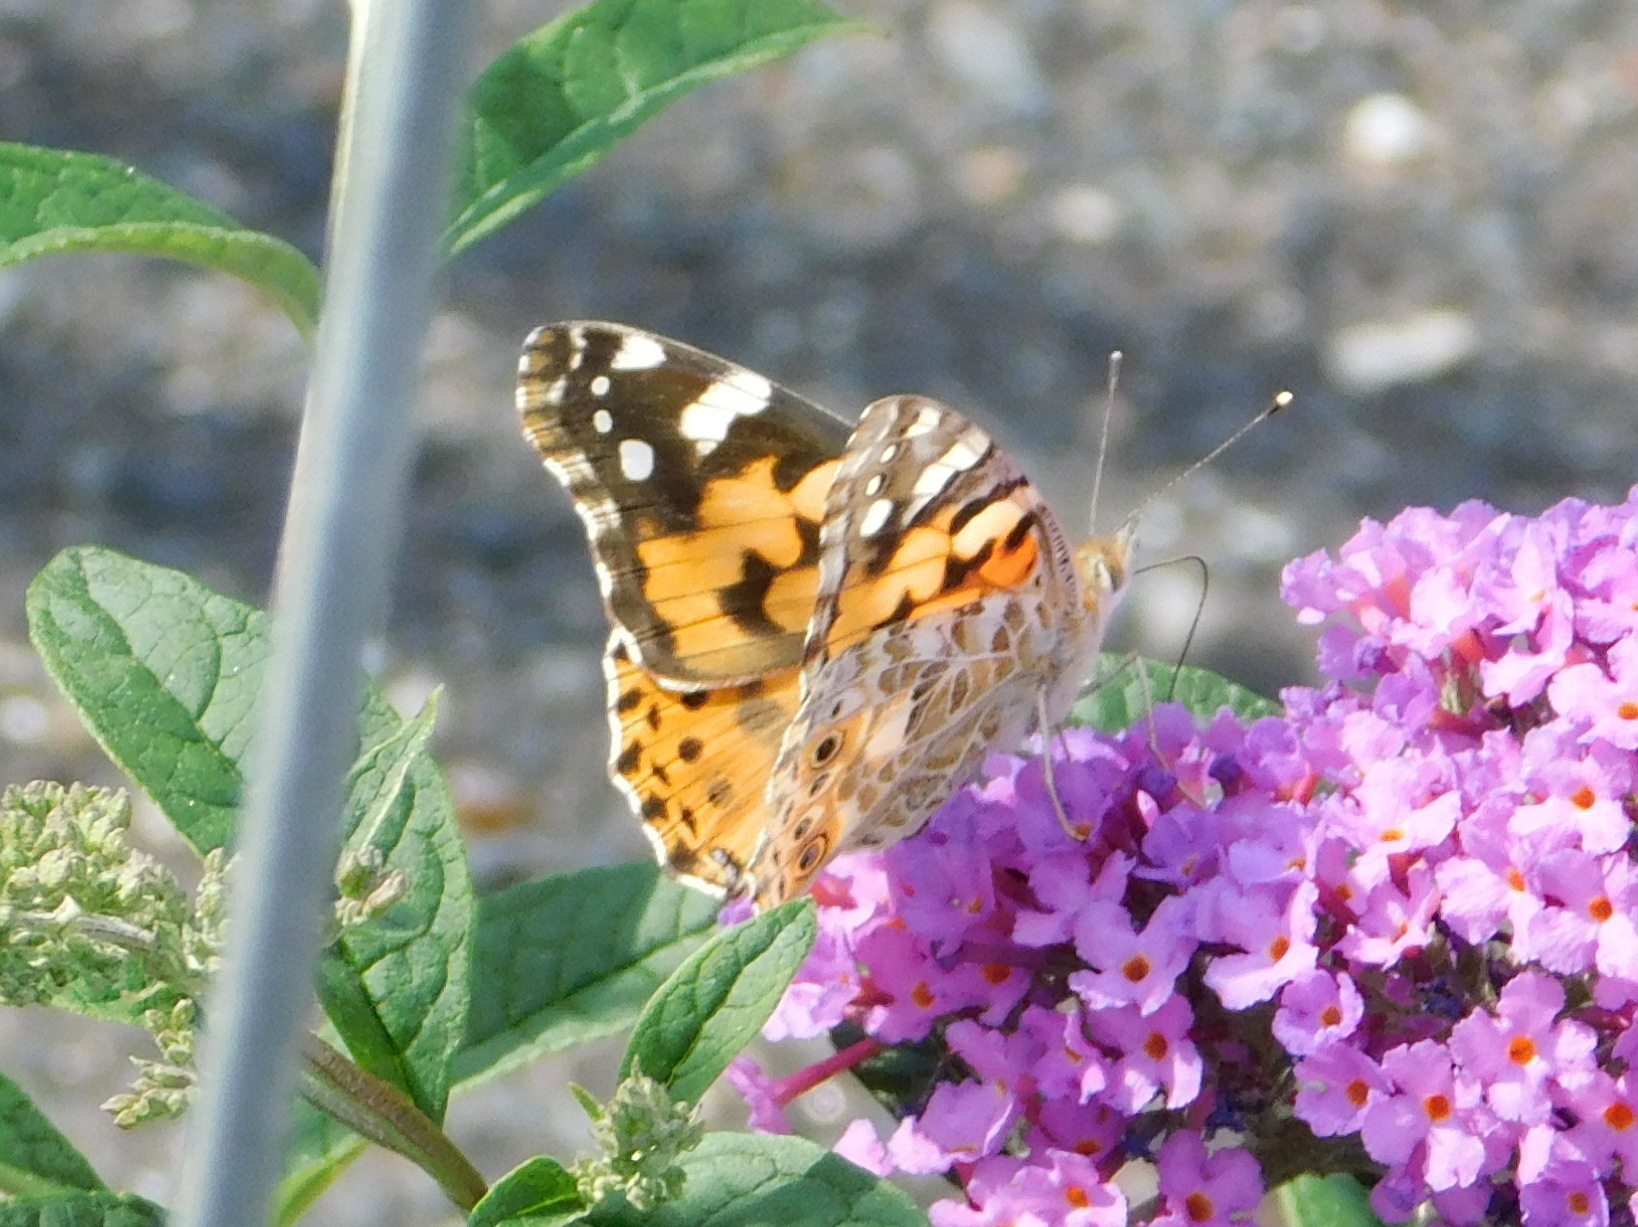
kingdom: Animalia
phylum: Arthropoda
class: Insecta
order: Lepidoptera
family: Nymphalidae
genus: Vanessa
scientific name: Vanessa cardui
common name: Painted lady
